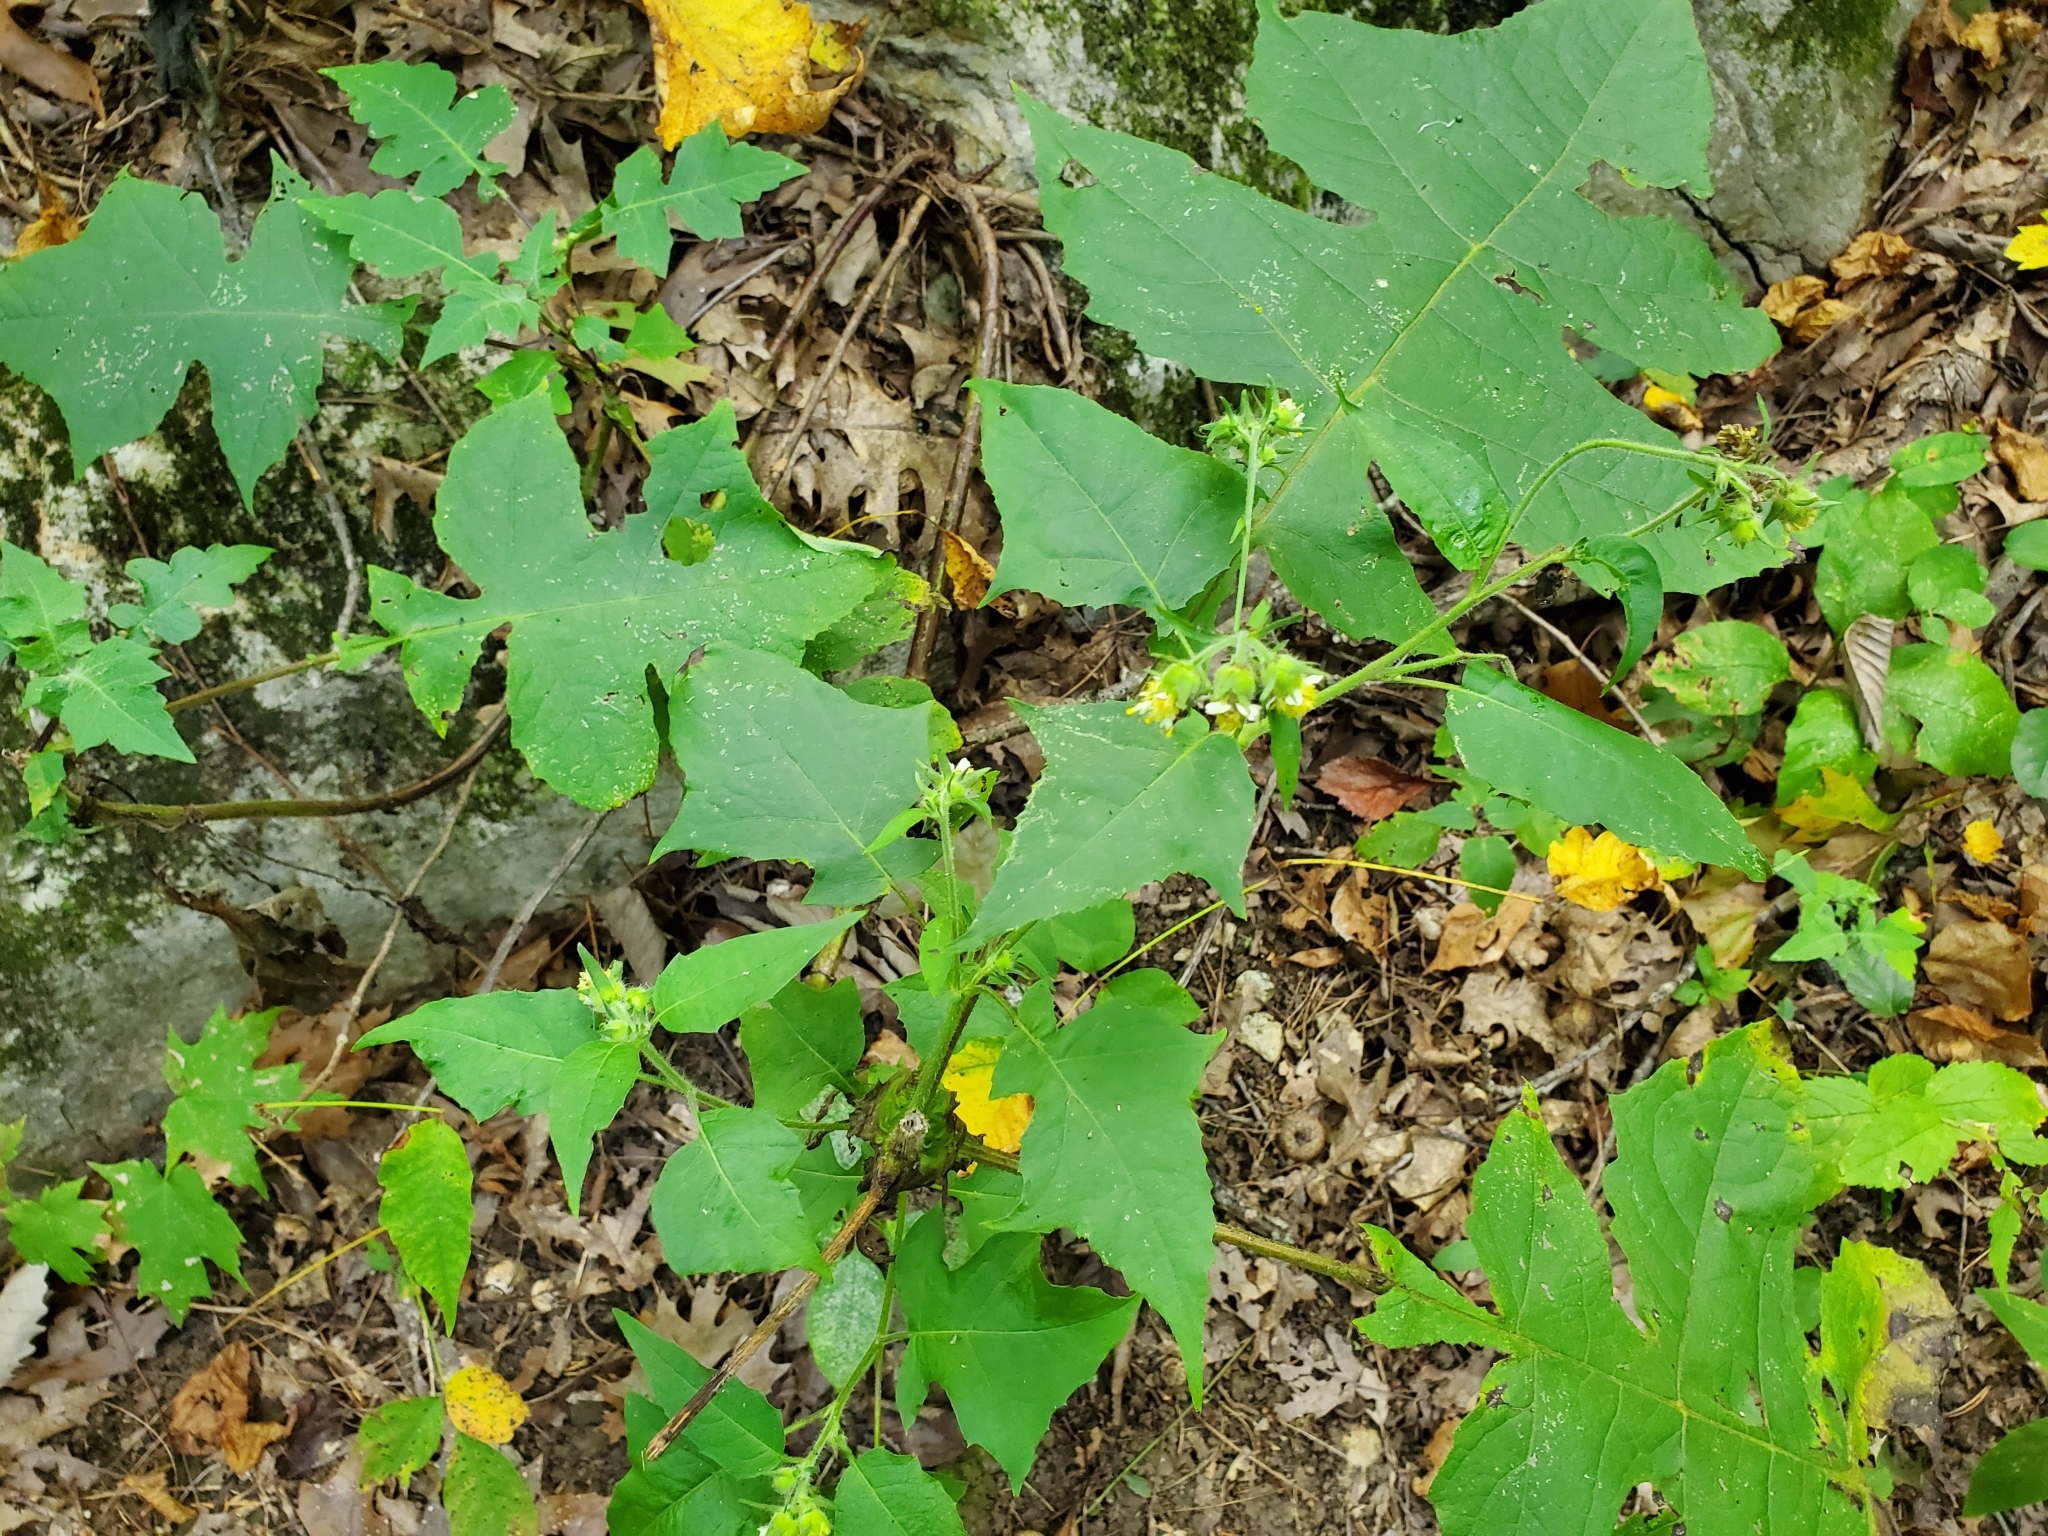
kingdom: Plantae
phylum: Tracheophyta
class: Magnoliopsida
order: Asterales
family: Asteraceae
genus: Smallanthus
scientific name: Smallanthus uvedalia
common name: Bear's-foot
